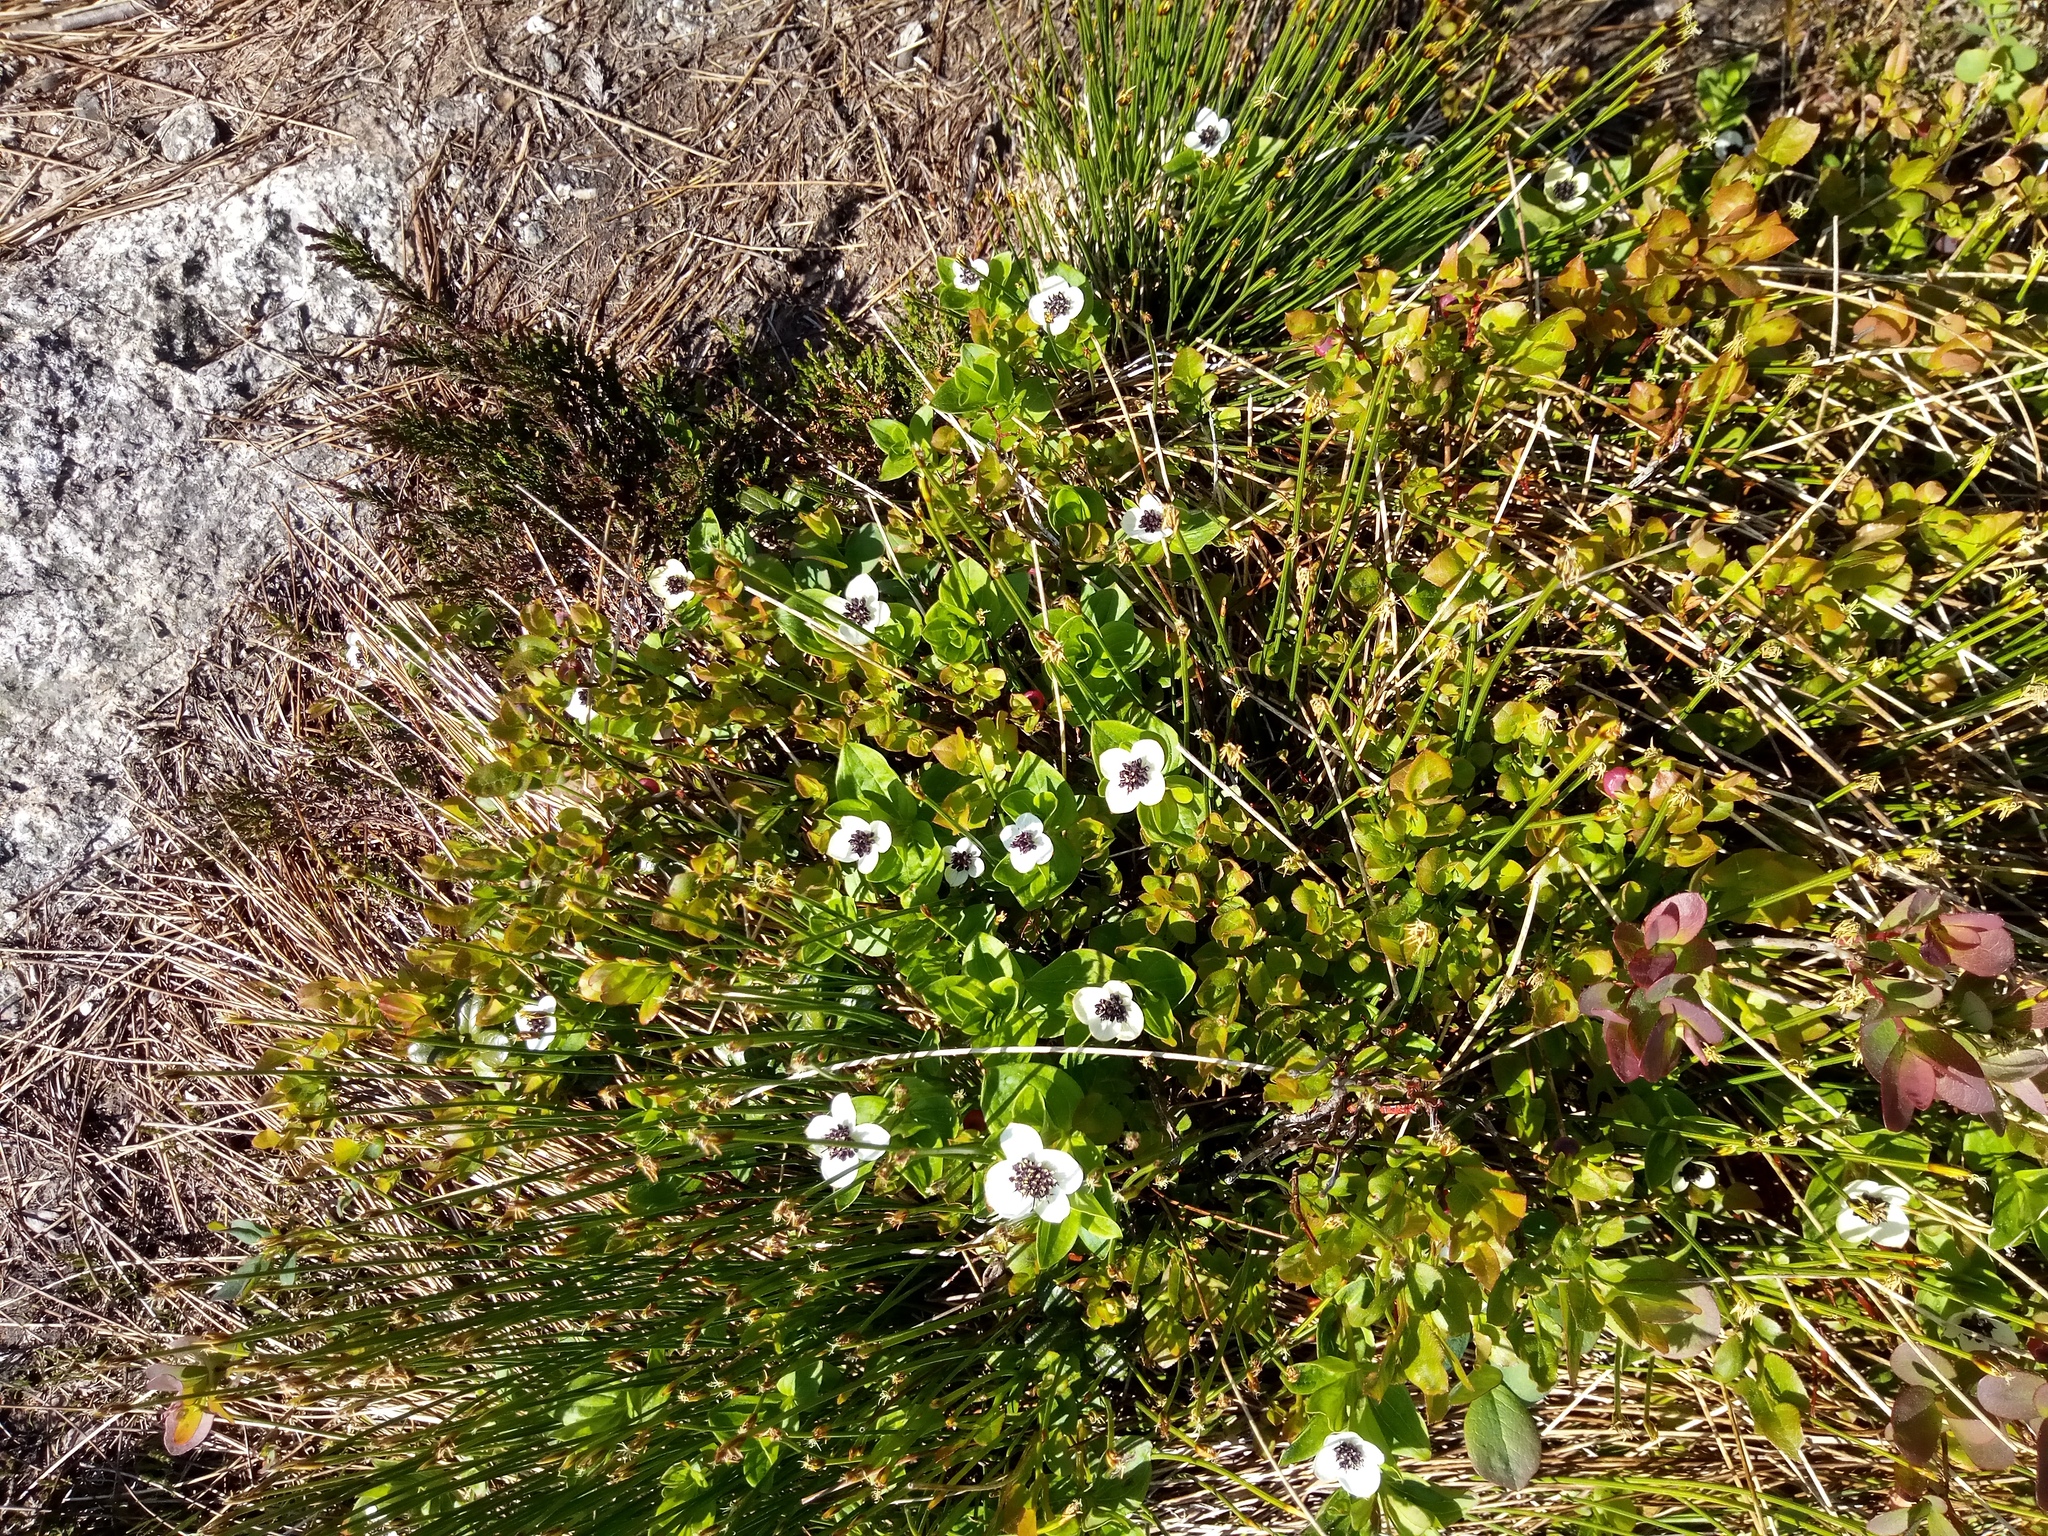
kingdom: Plantae
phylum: Tracheophyta
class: Magnoliopsida
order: Cornales
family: Cornaceae
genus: Cornus
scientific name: Cornus suecica
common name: Dwarf cornel
